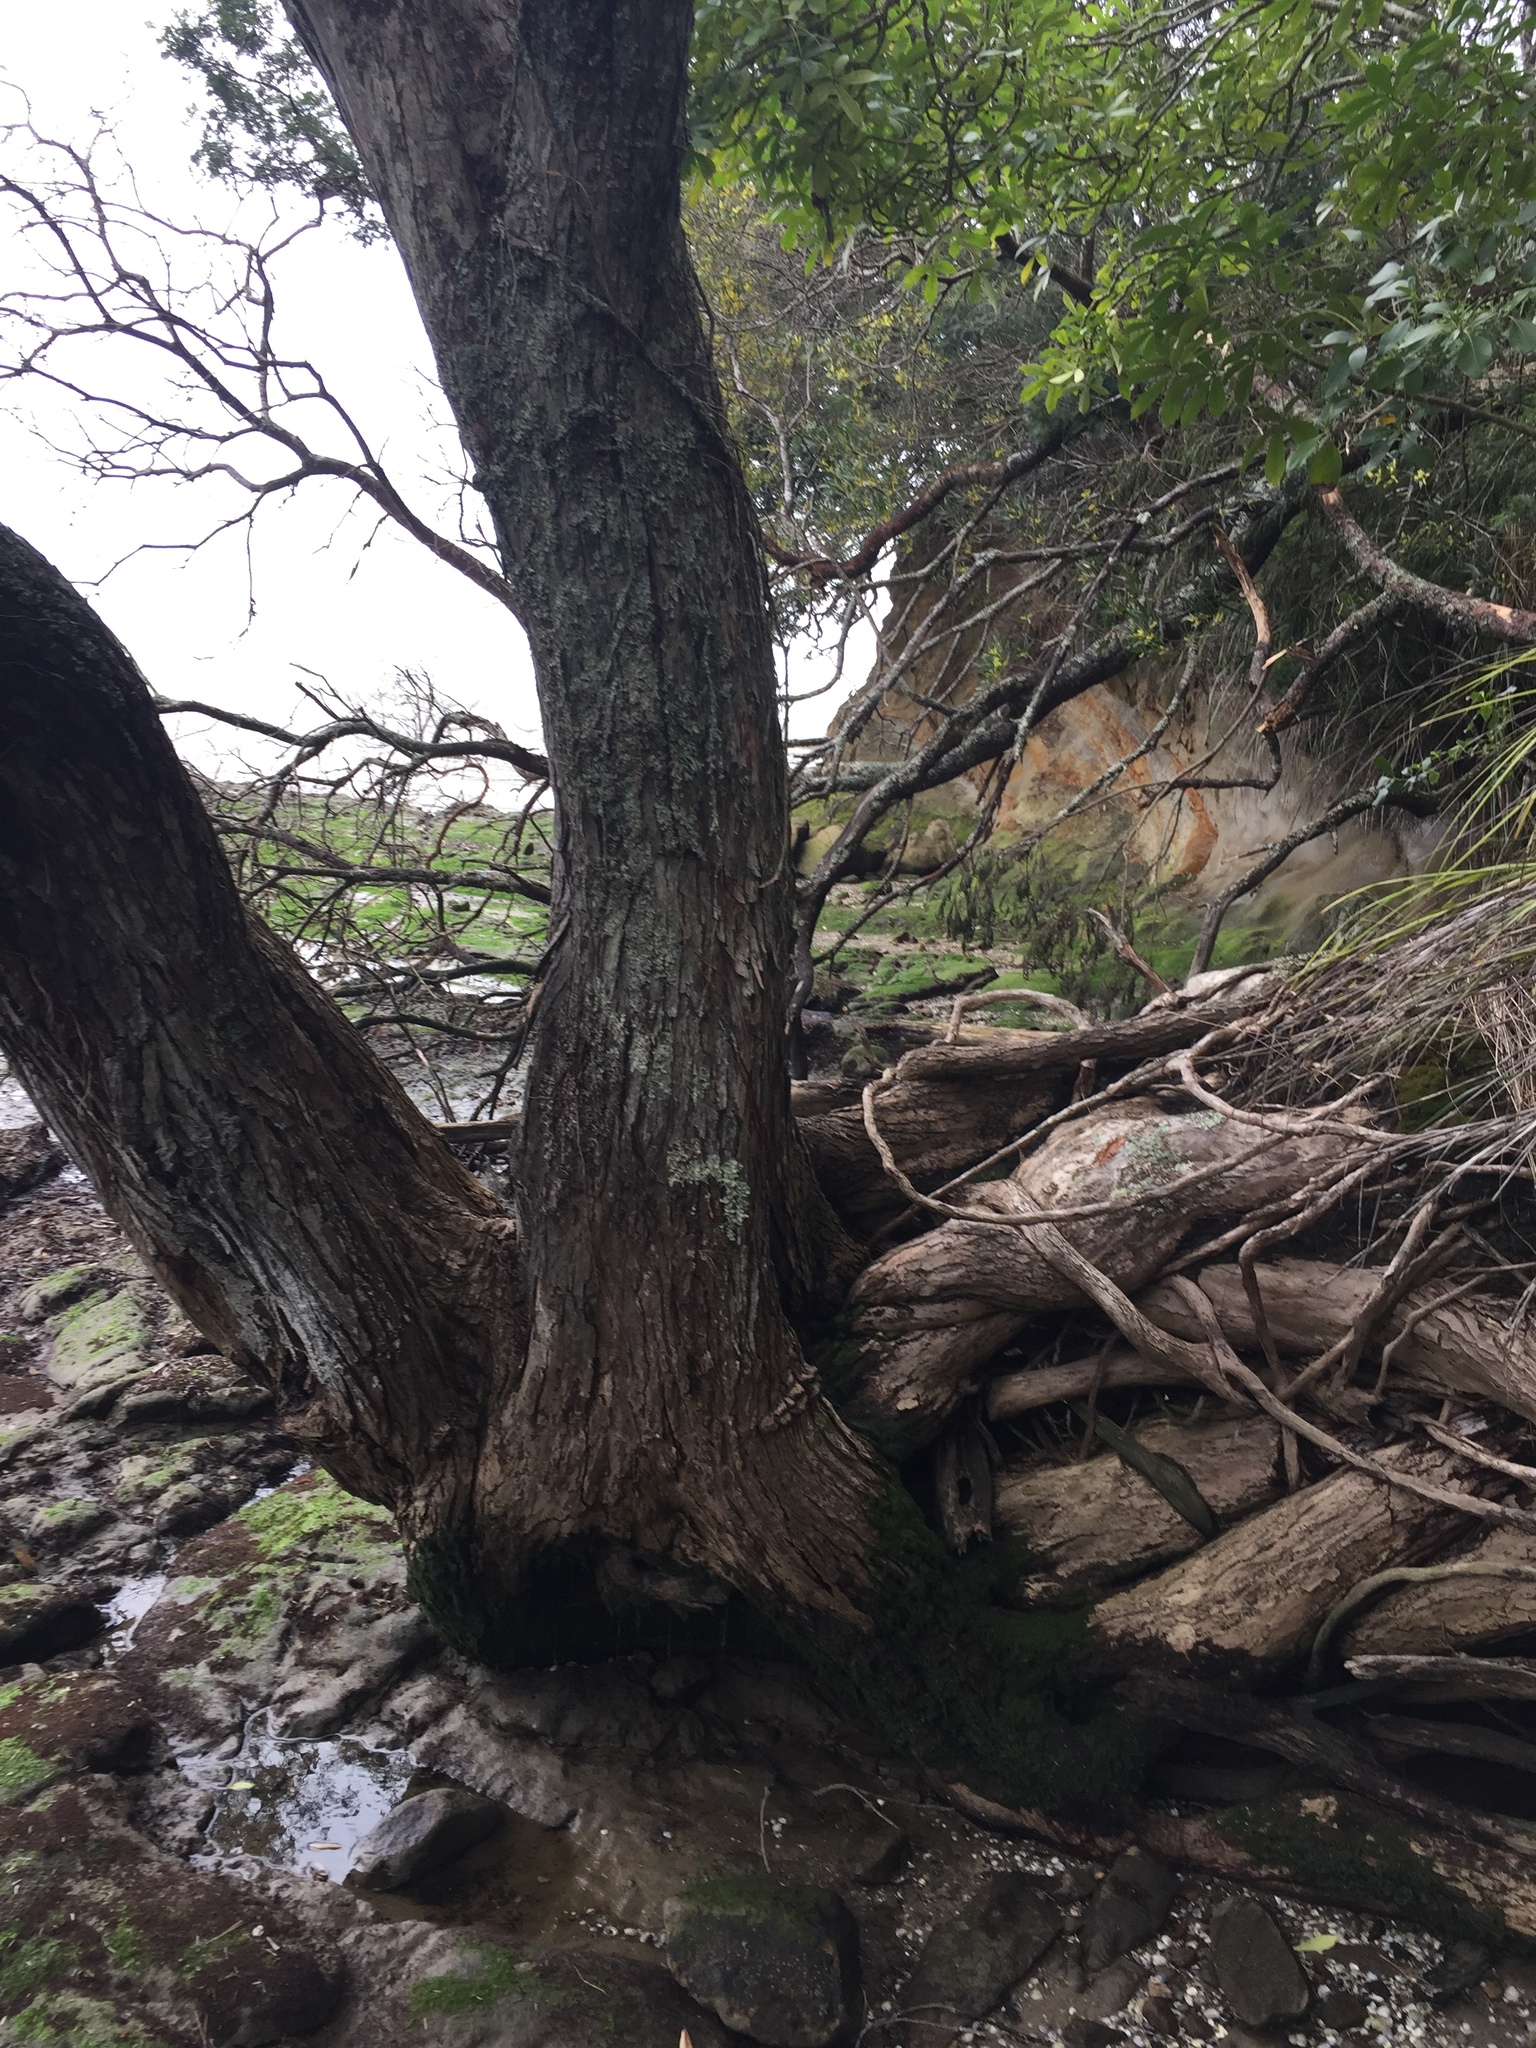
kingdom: Fungi
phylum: Ascomycota
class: Lecanoromycetes
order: Lecanorales
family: Byssolomataceae
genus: Micarea
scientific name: Micarea prasina
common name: Green dot lichen
